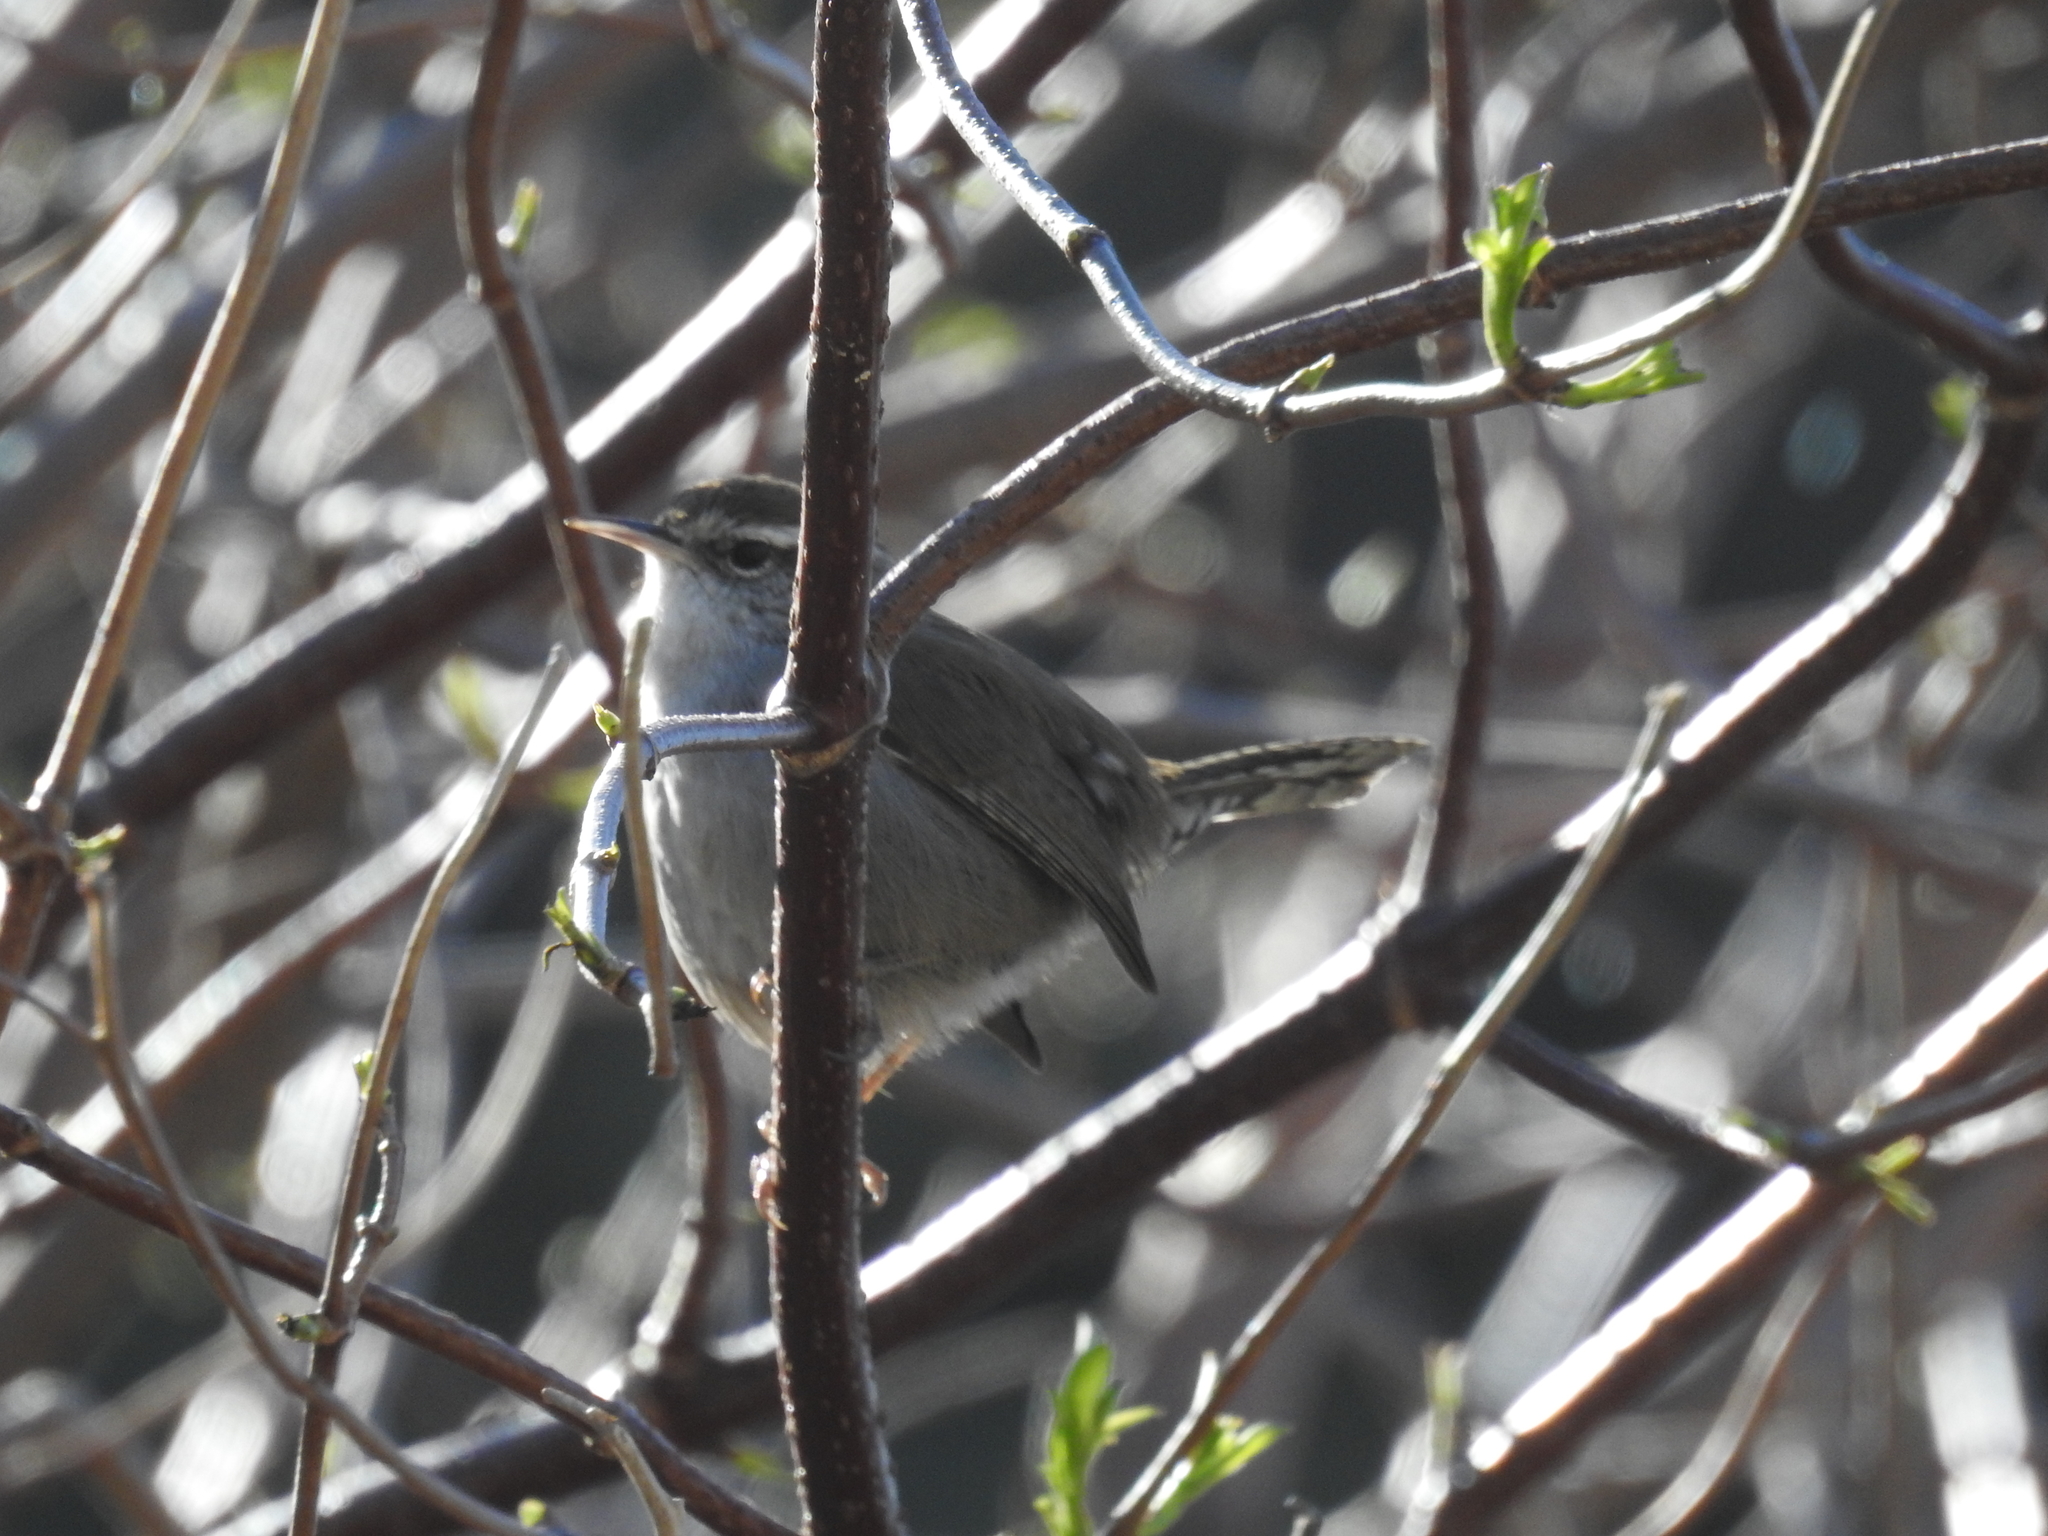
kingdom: Animalia
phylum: Chordata
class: Aves
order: Passeriformes
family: Troglodytidae
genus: Thryomanes
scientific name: Thryomanes bewickii
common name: Bewick's wren
